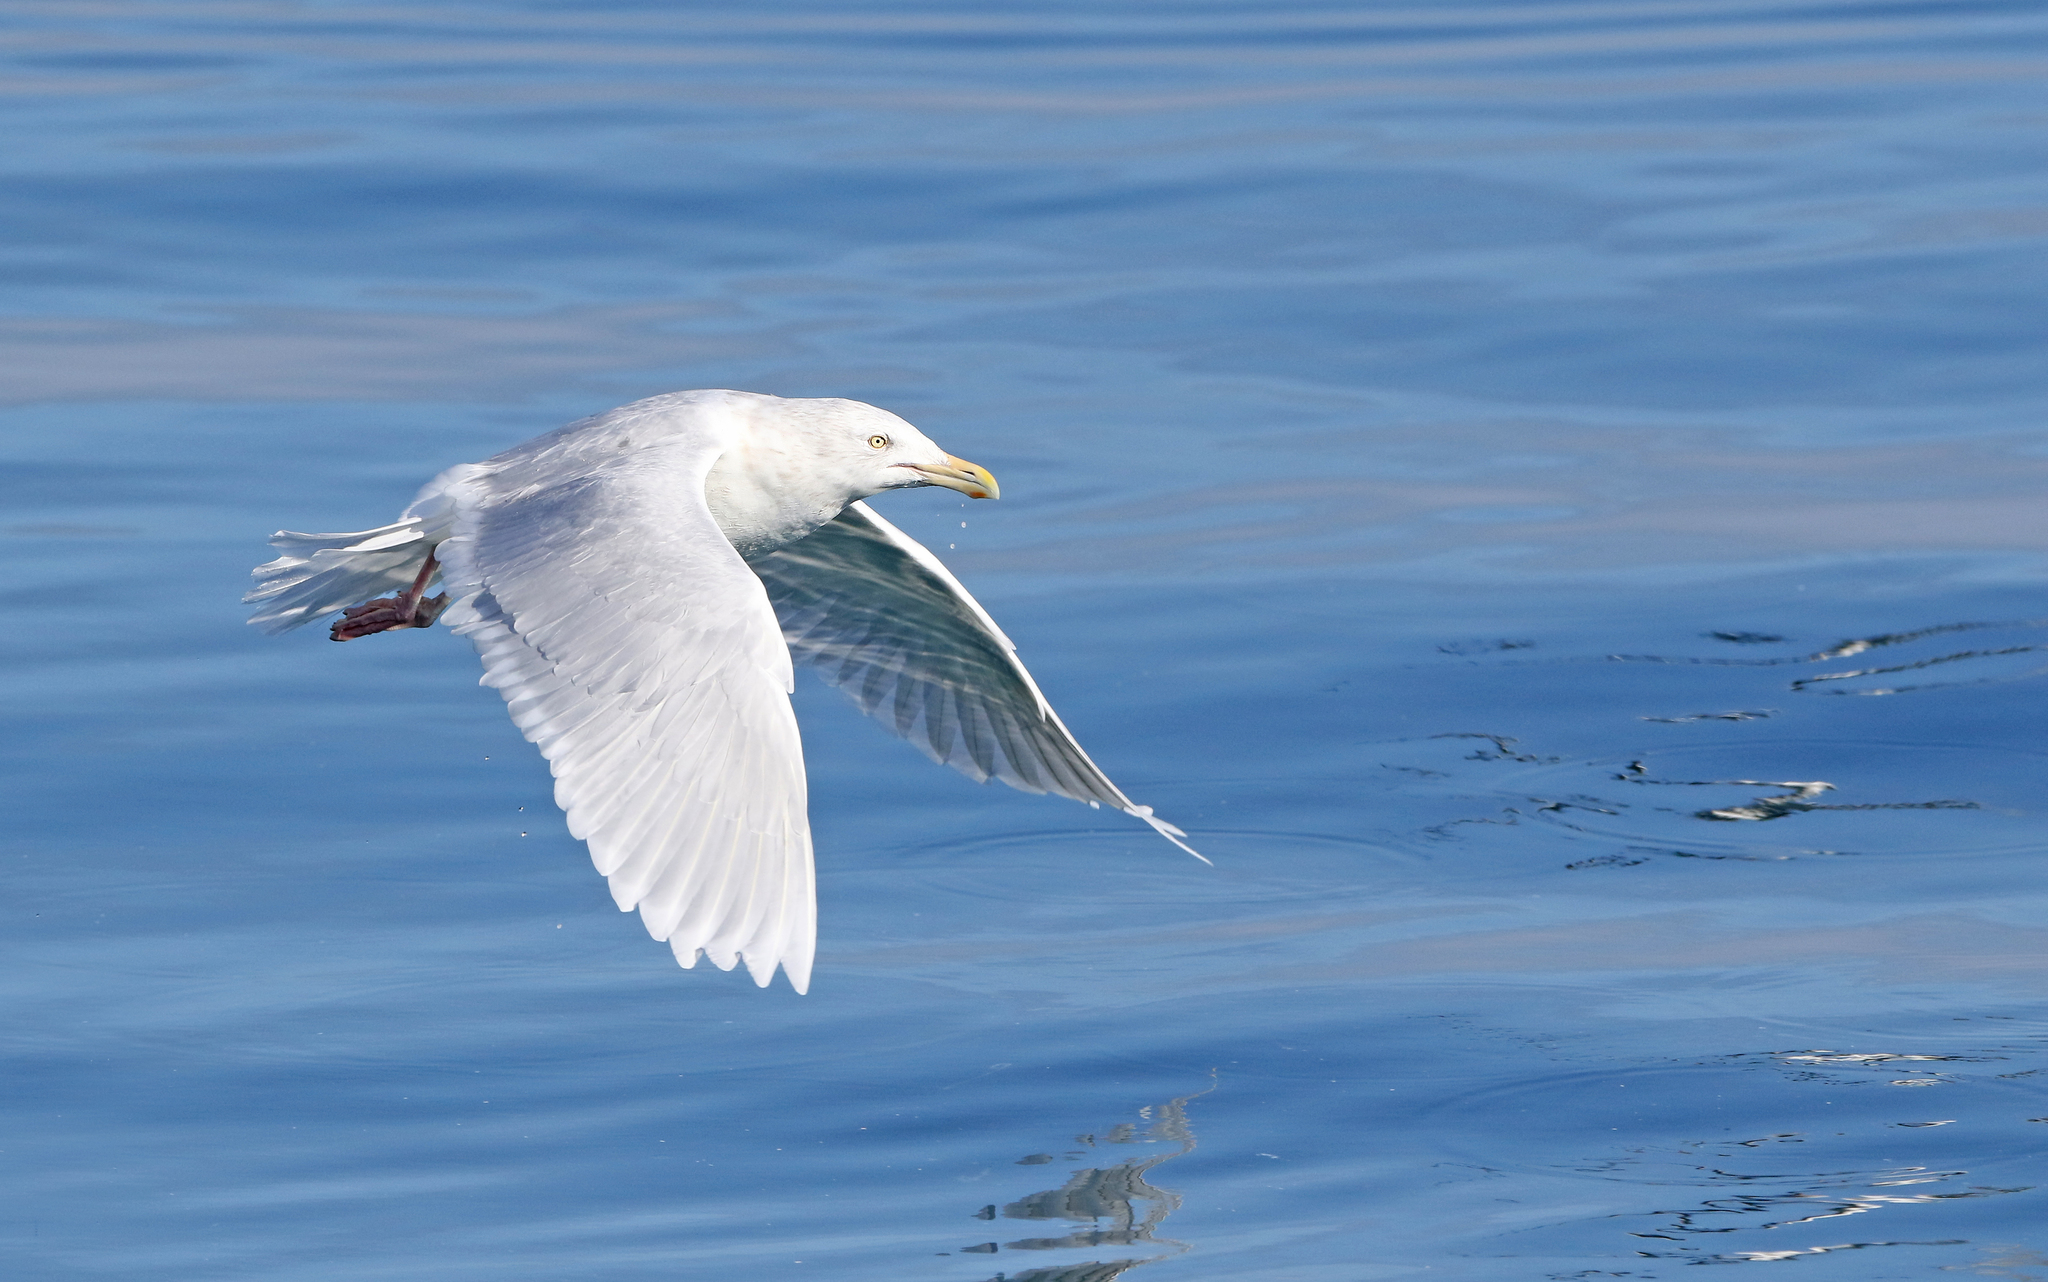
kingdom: Animalia
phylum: Chordata
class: Aves
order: Charadriiformes
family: Laridae
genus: Larus
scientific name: Larus hyperboreus
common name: Glaucous gull
